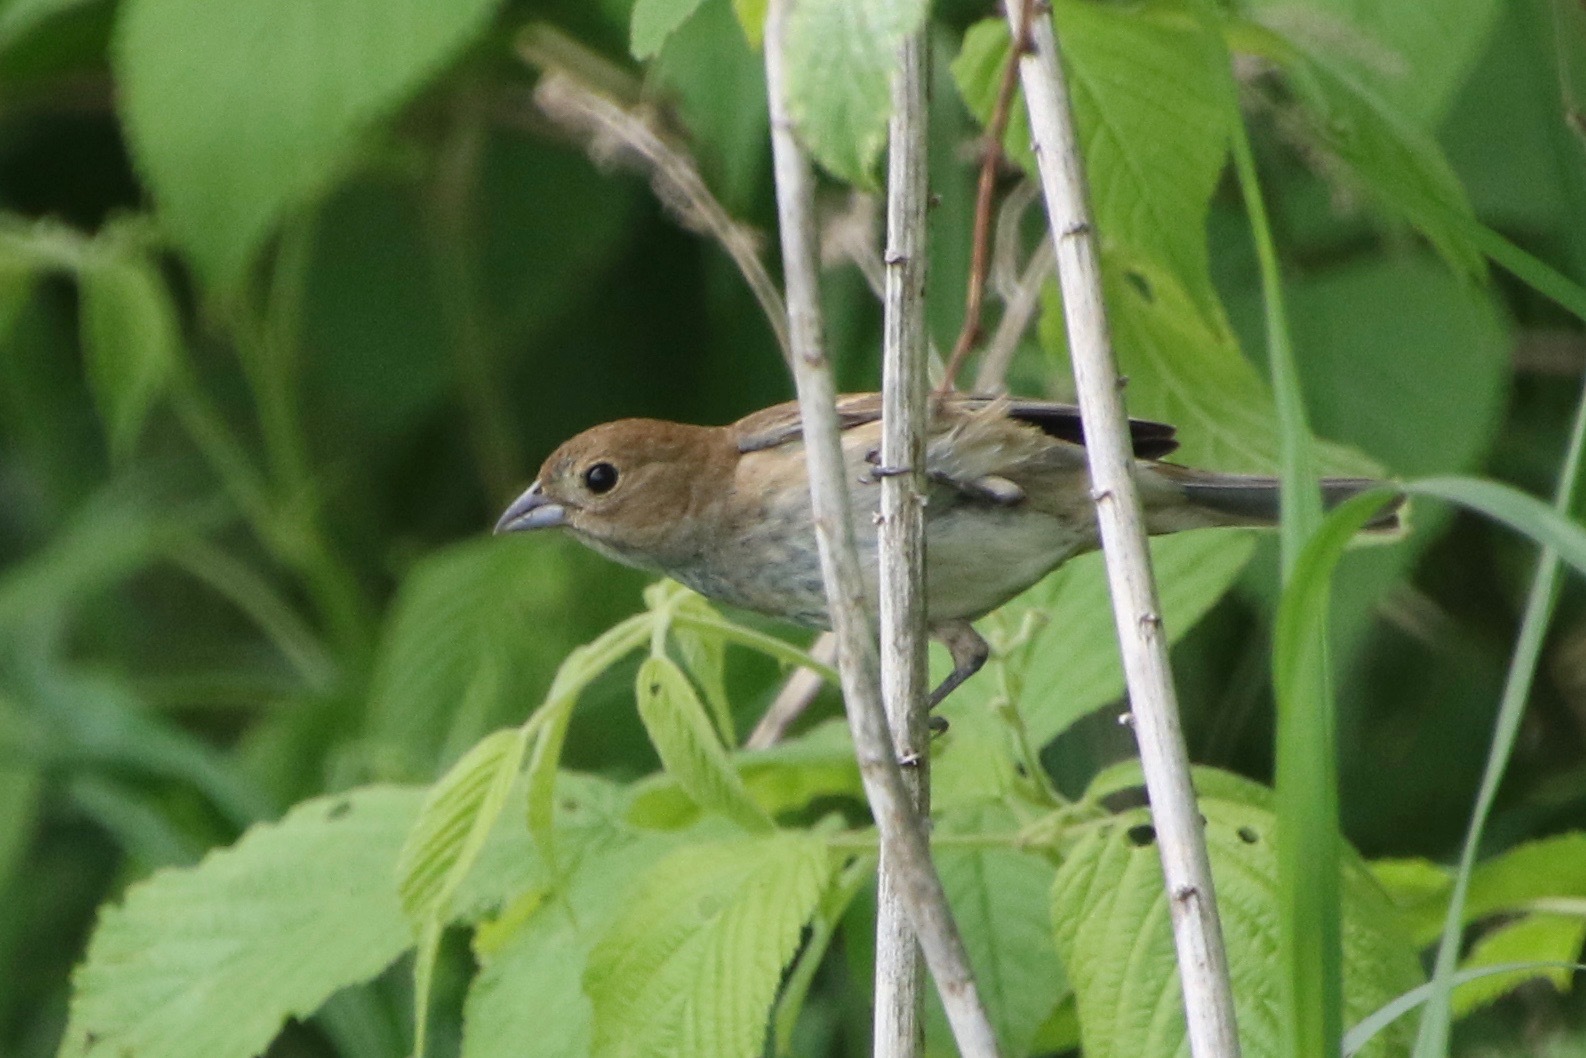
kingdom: Animalia
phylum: Chordata
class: Aves
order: Passeriformes
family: Cardinalidae
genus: Passerina
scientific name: Passerina cyanea
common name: Indigo bunting
